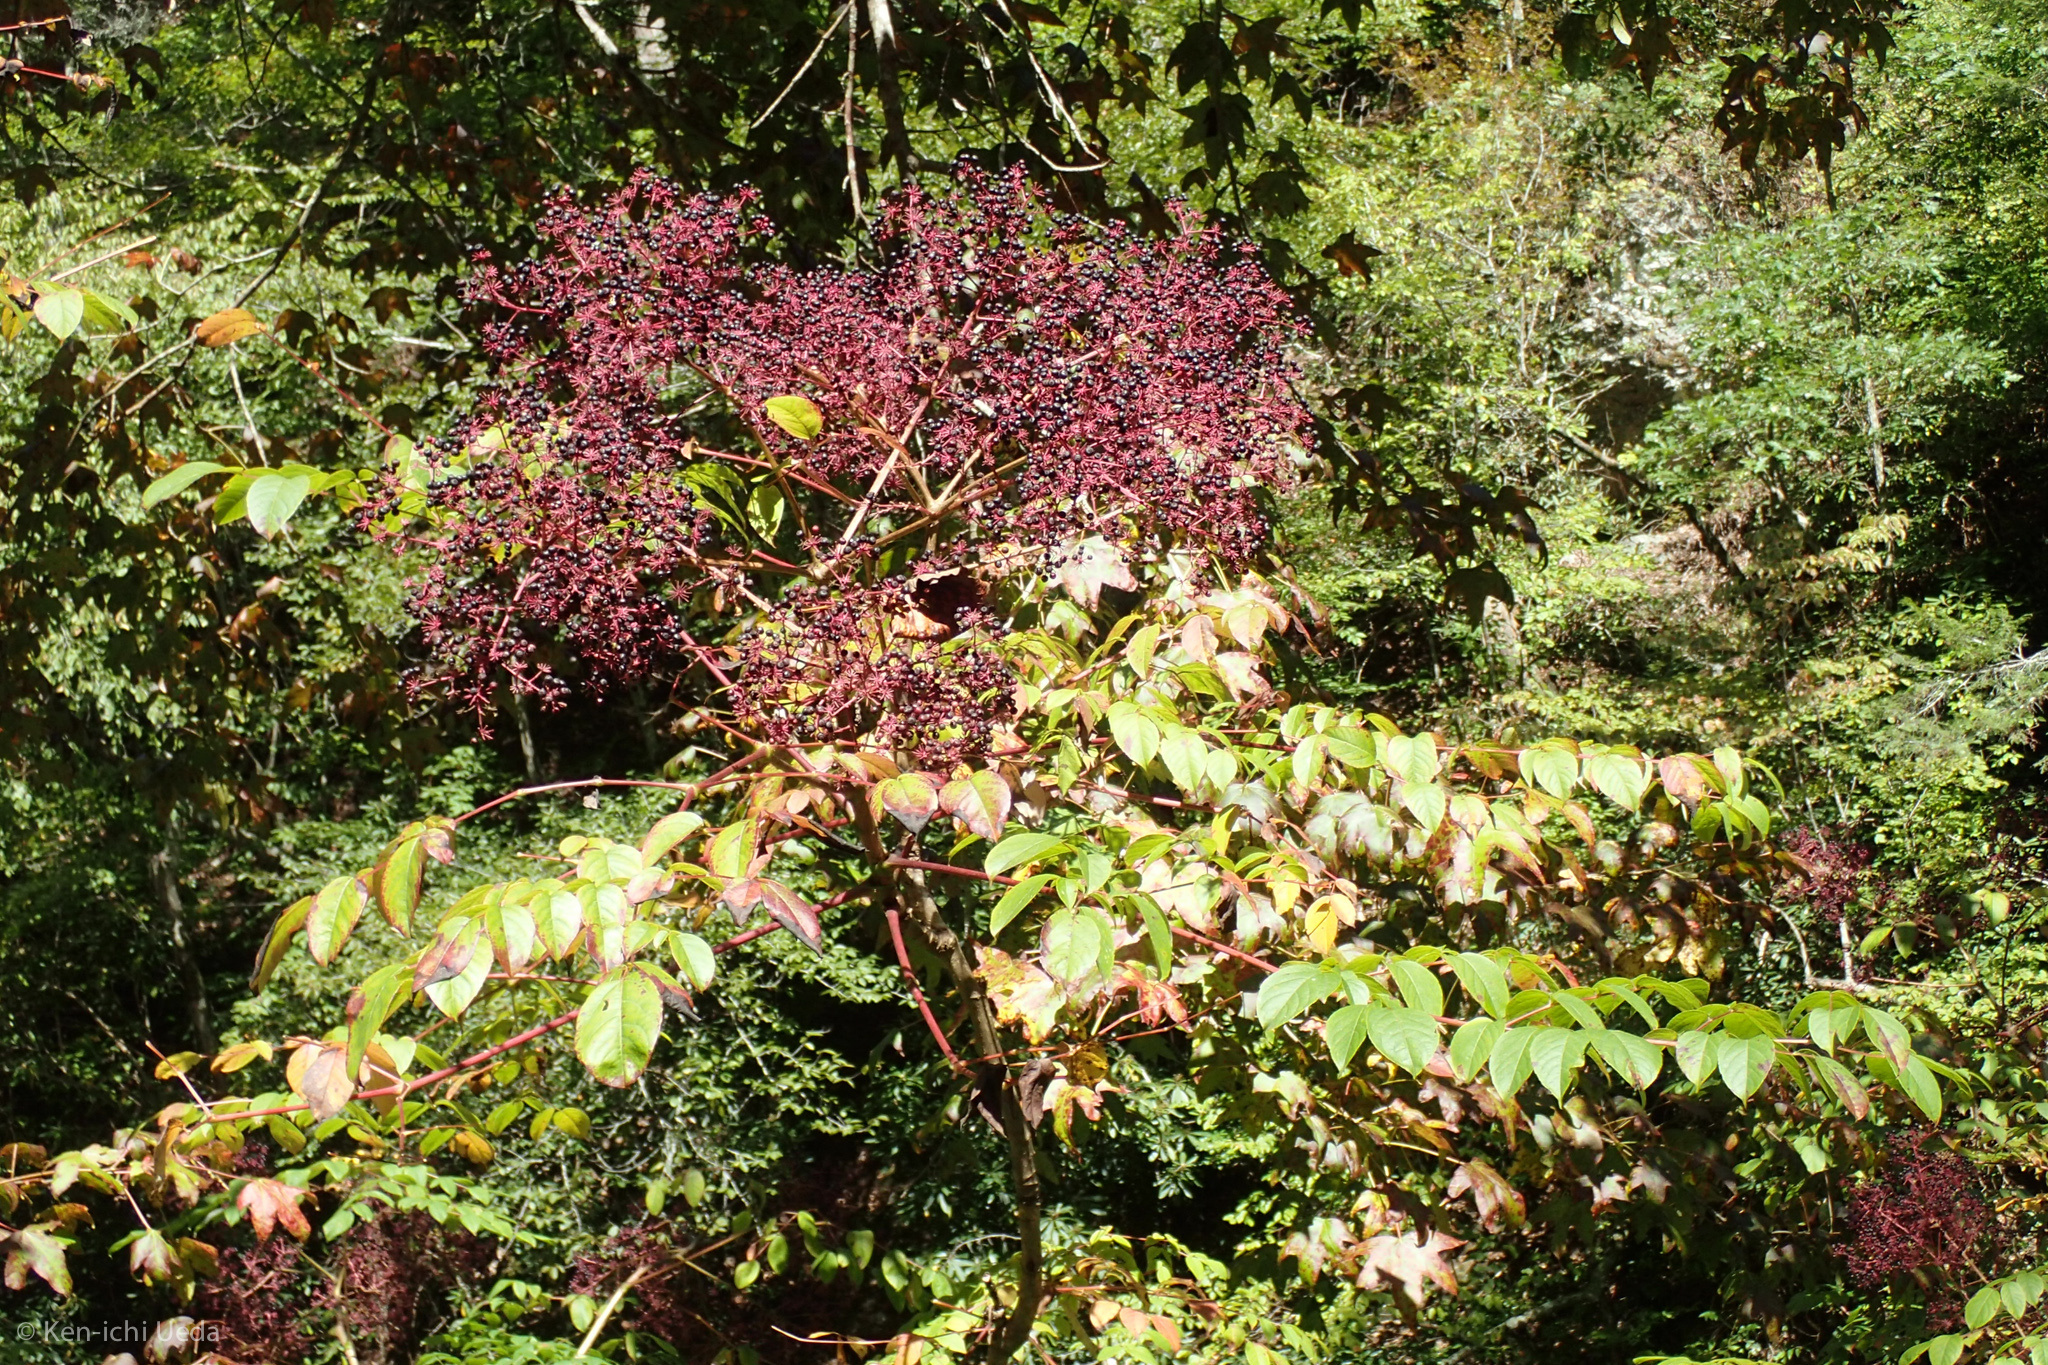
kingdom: Plantae
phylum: Tracheophyta
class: Magnoliopsida
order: Apiales
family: Araliaceae
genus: Aralia
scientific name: Aralia spinosa
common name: Hercules'-club
